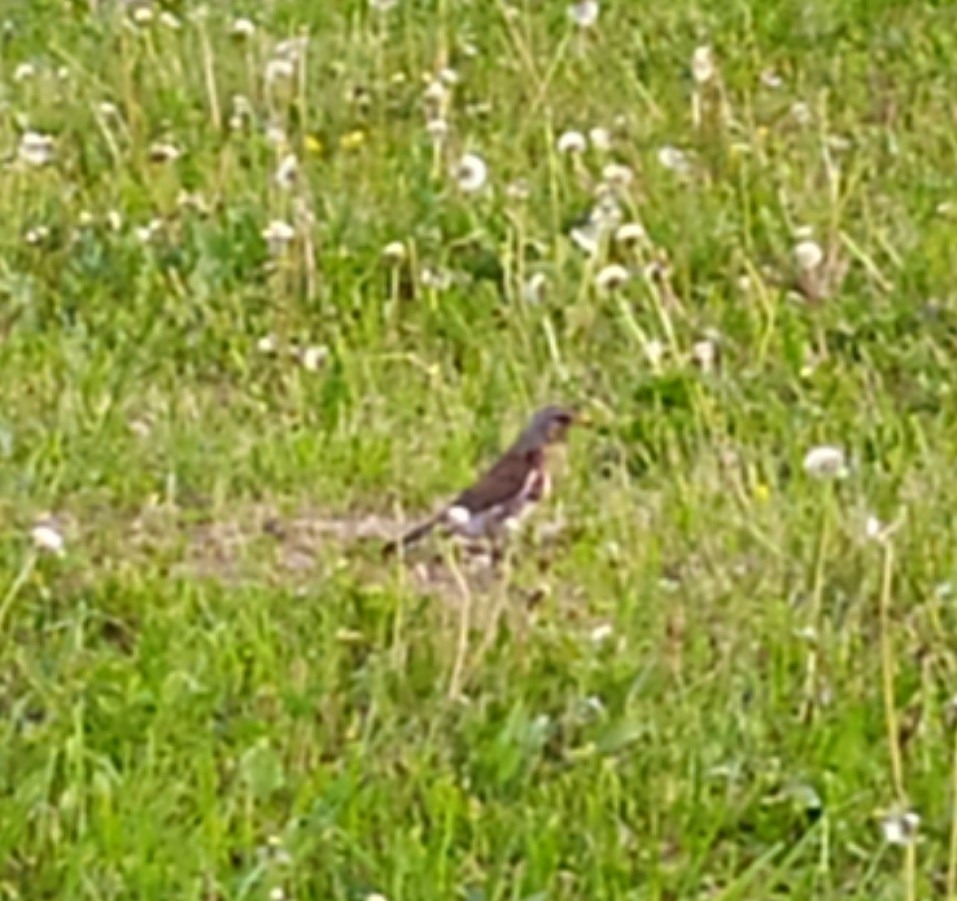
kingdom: Animalia
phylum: Chordata
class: Aves
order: Passeriformes
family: Turdidae
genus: Turdus
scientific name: Turdus pilaris
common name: Fieldfare
